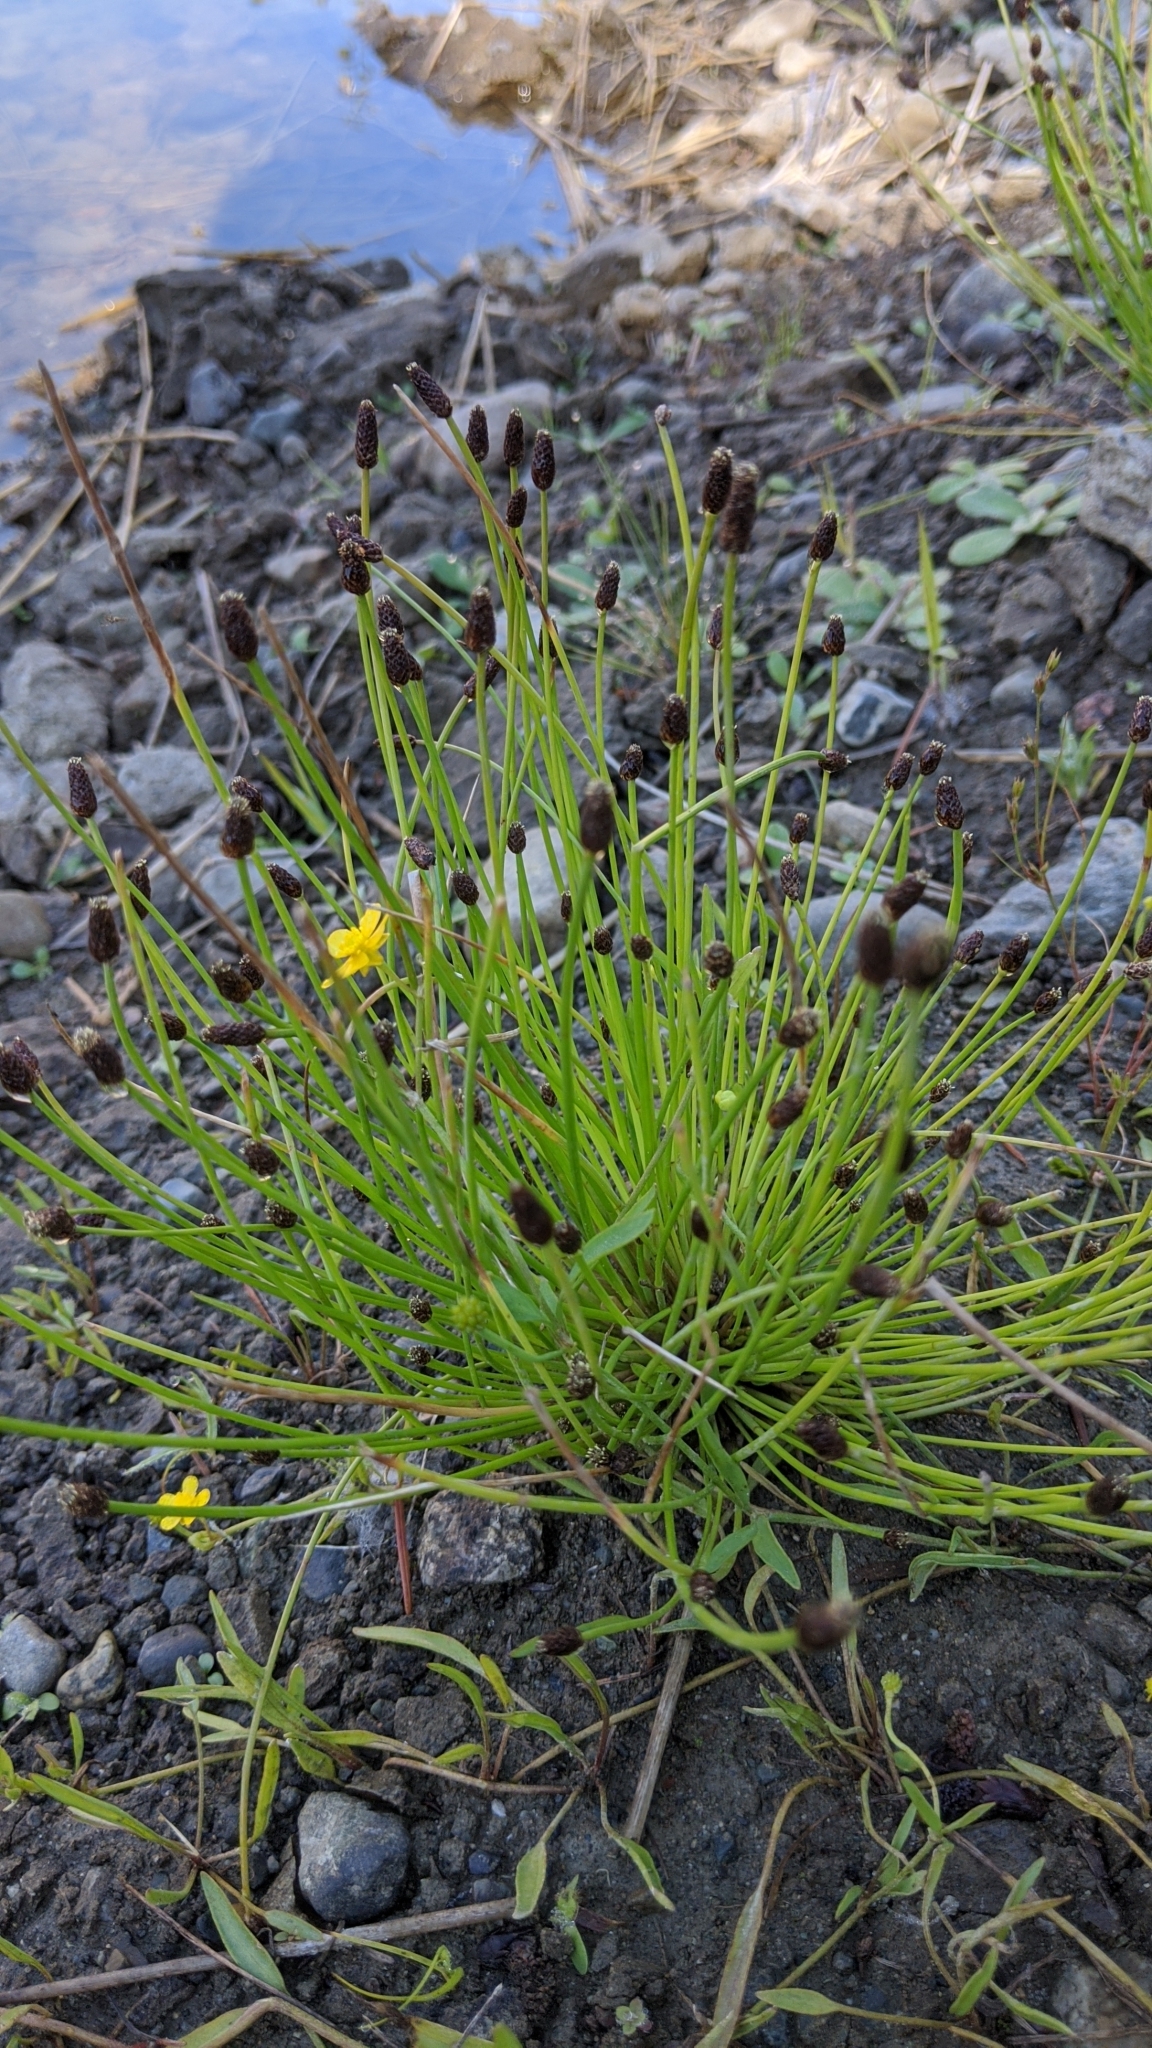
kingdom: Plantae
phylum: Tracheophyta
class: Liliopsida
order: Poales
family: Cyperaceae
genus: Eleocharis
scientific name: Eleocharis obtusa
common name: Blunt spikerush
